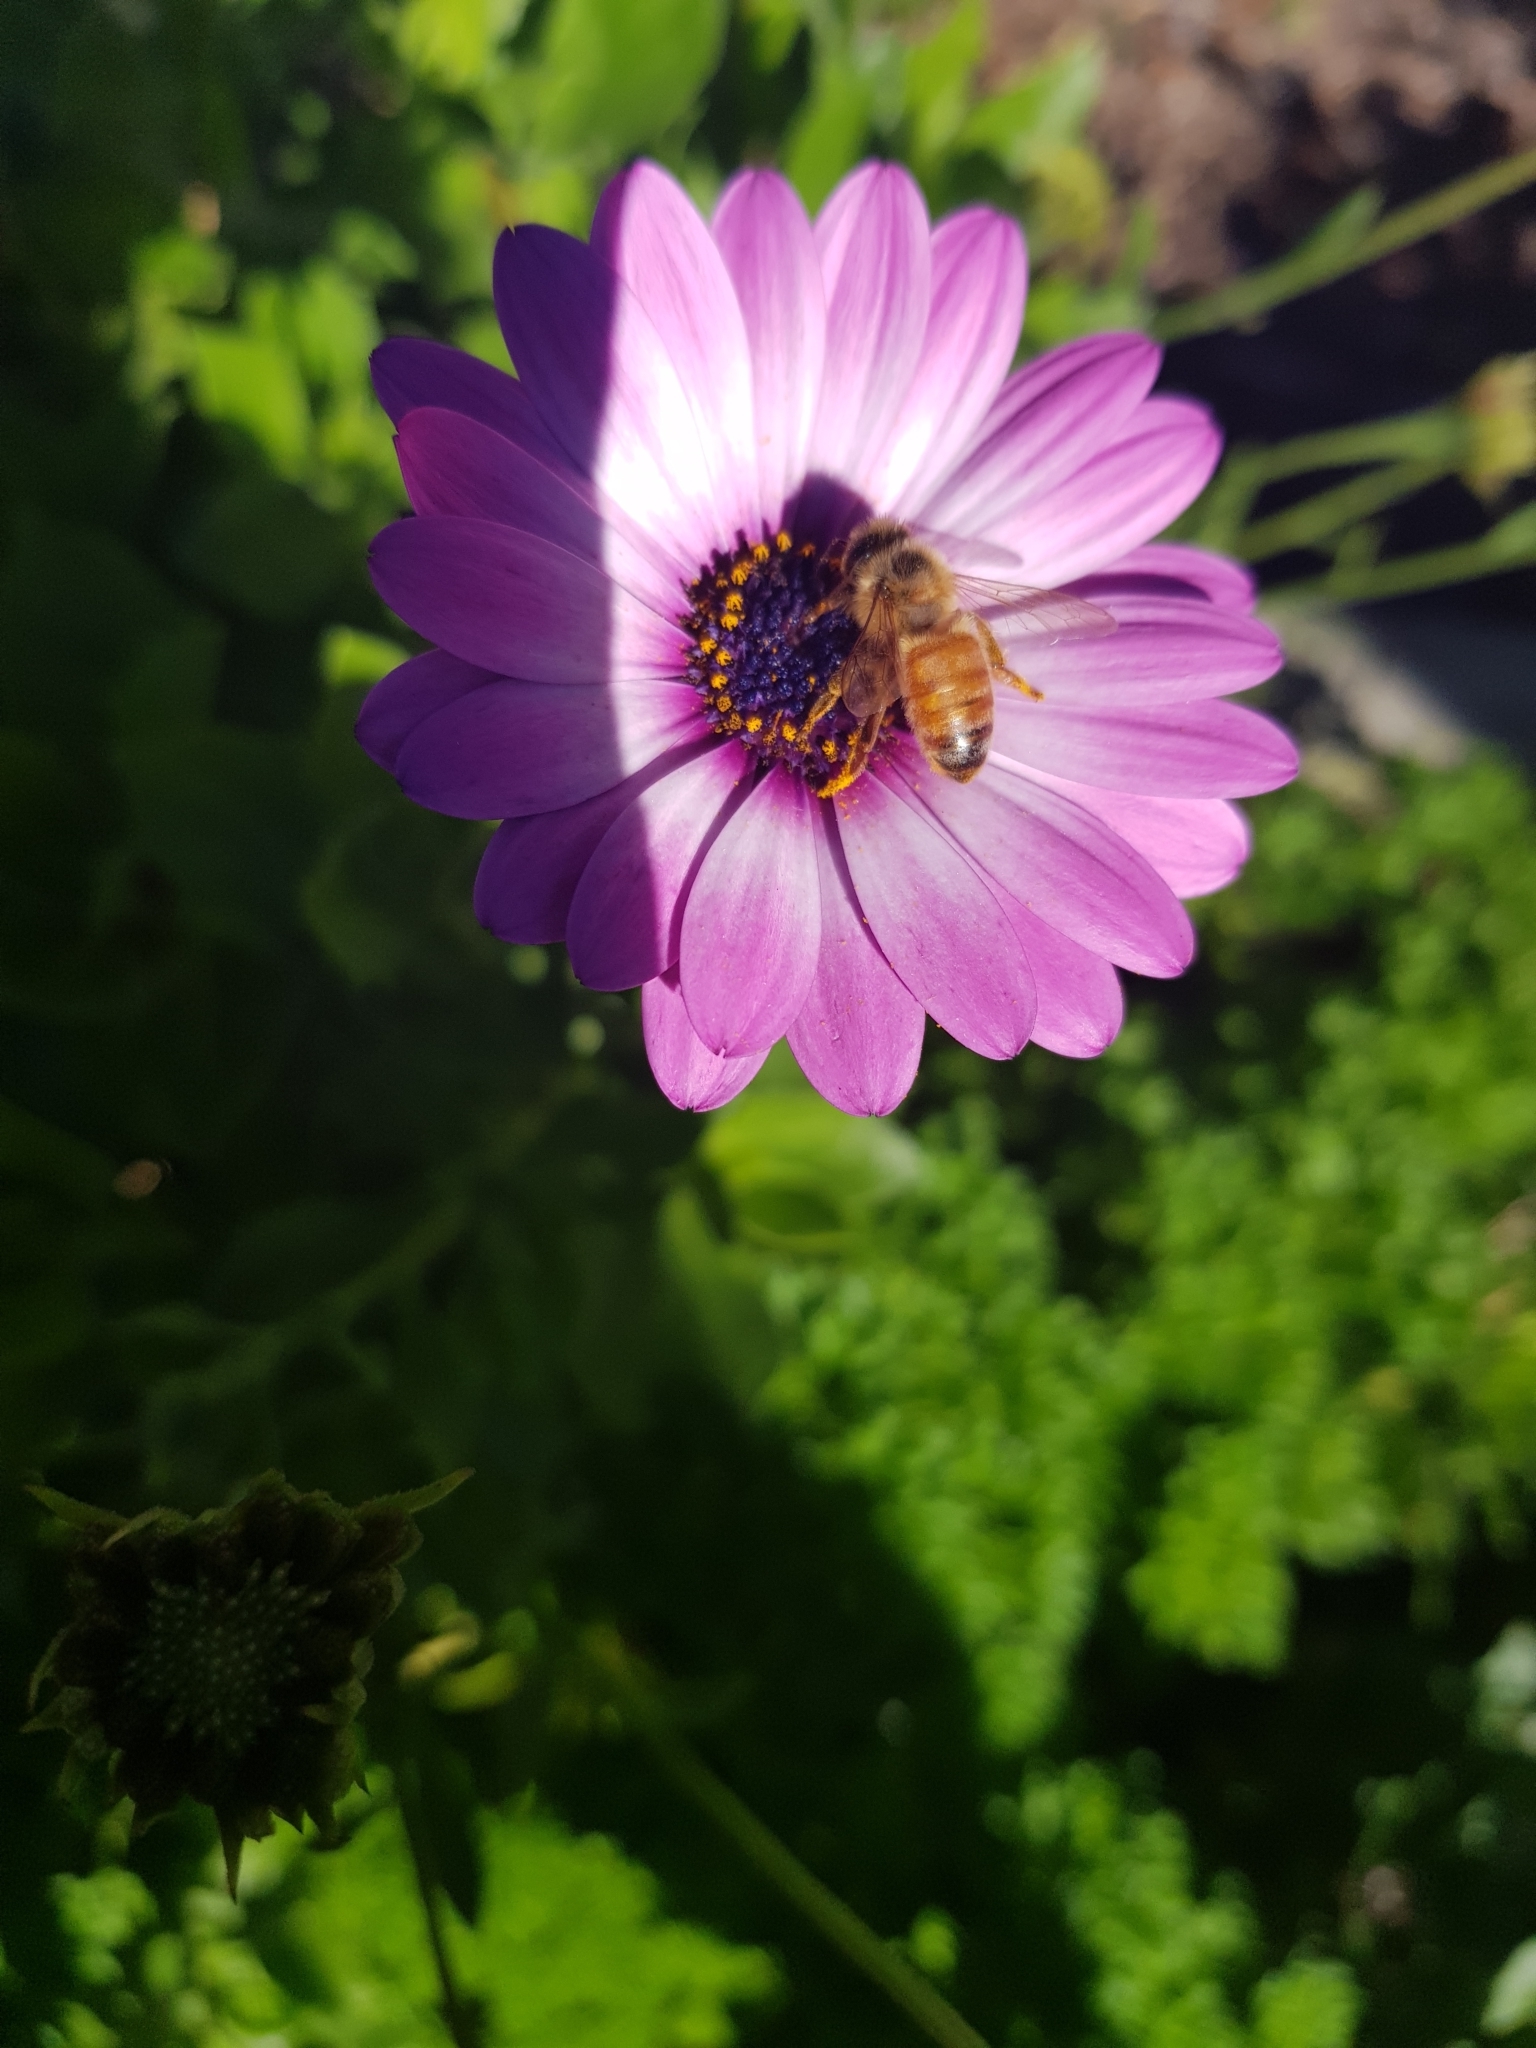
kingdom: Animalia
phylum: Arthropoda
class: Insecta
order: Hymenoptera
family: Apidae
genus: Apis
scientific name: Apis mellifera
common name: Honey bee
